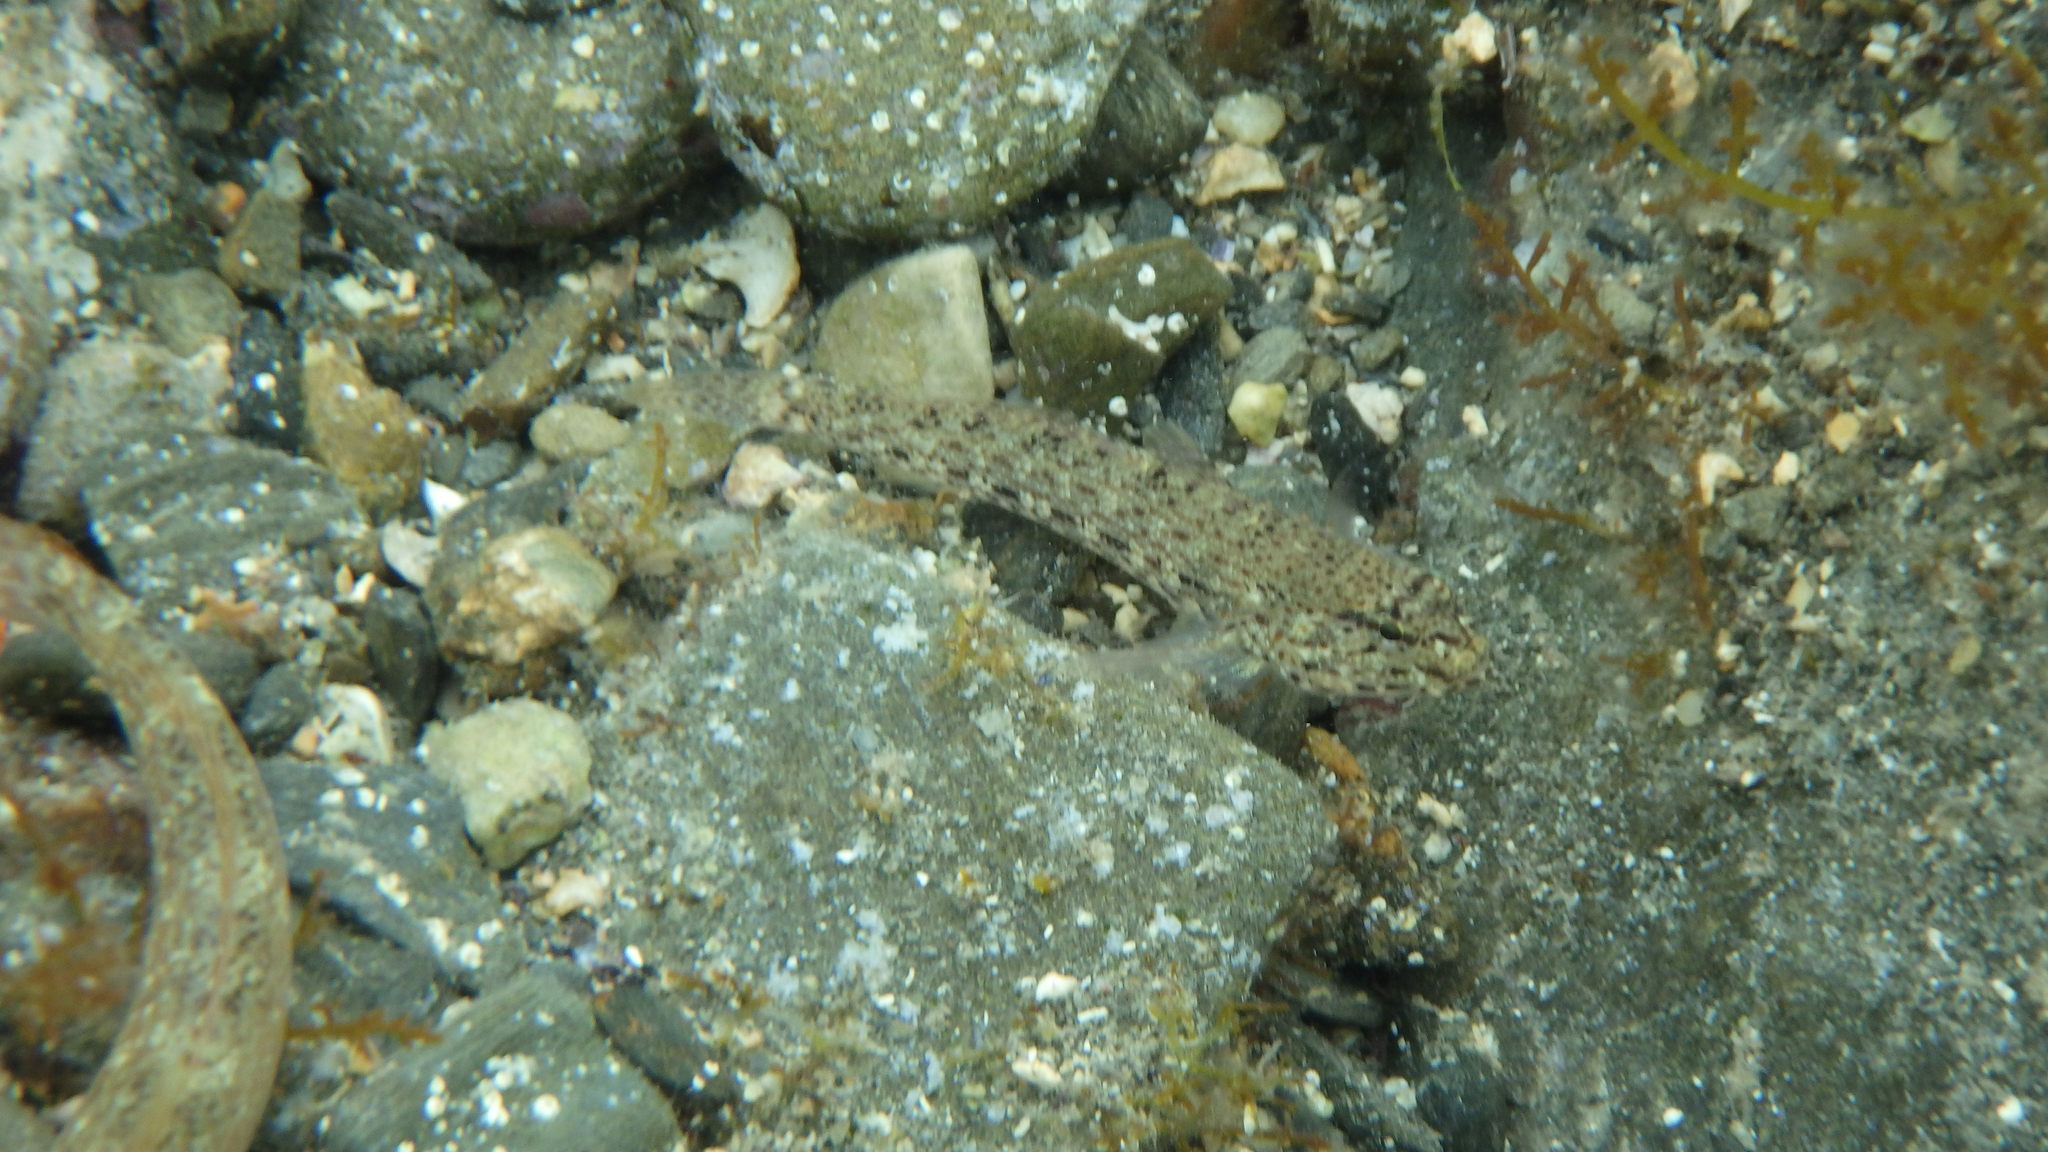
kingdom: Animalia
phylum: Chordata
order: Perciformes
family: Gobiidae
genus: Gobius
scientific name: Gobius incognitus
